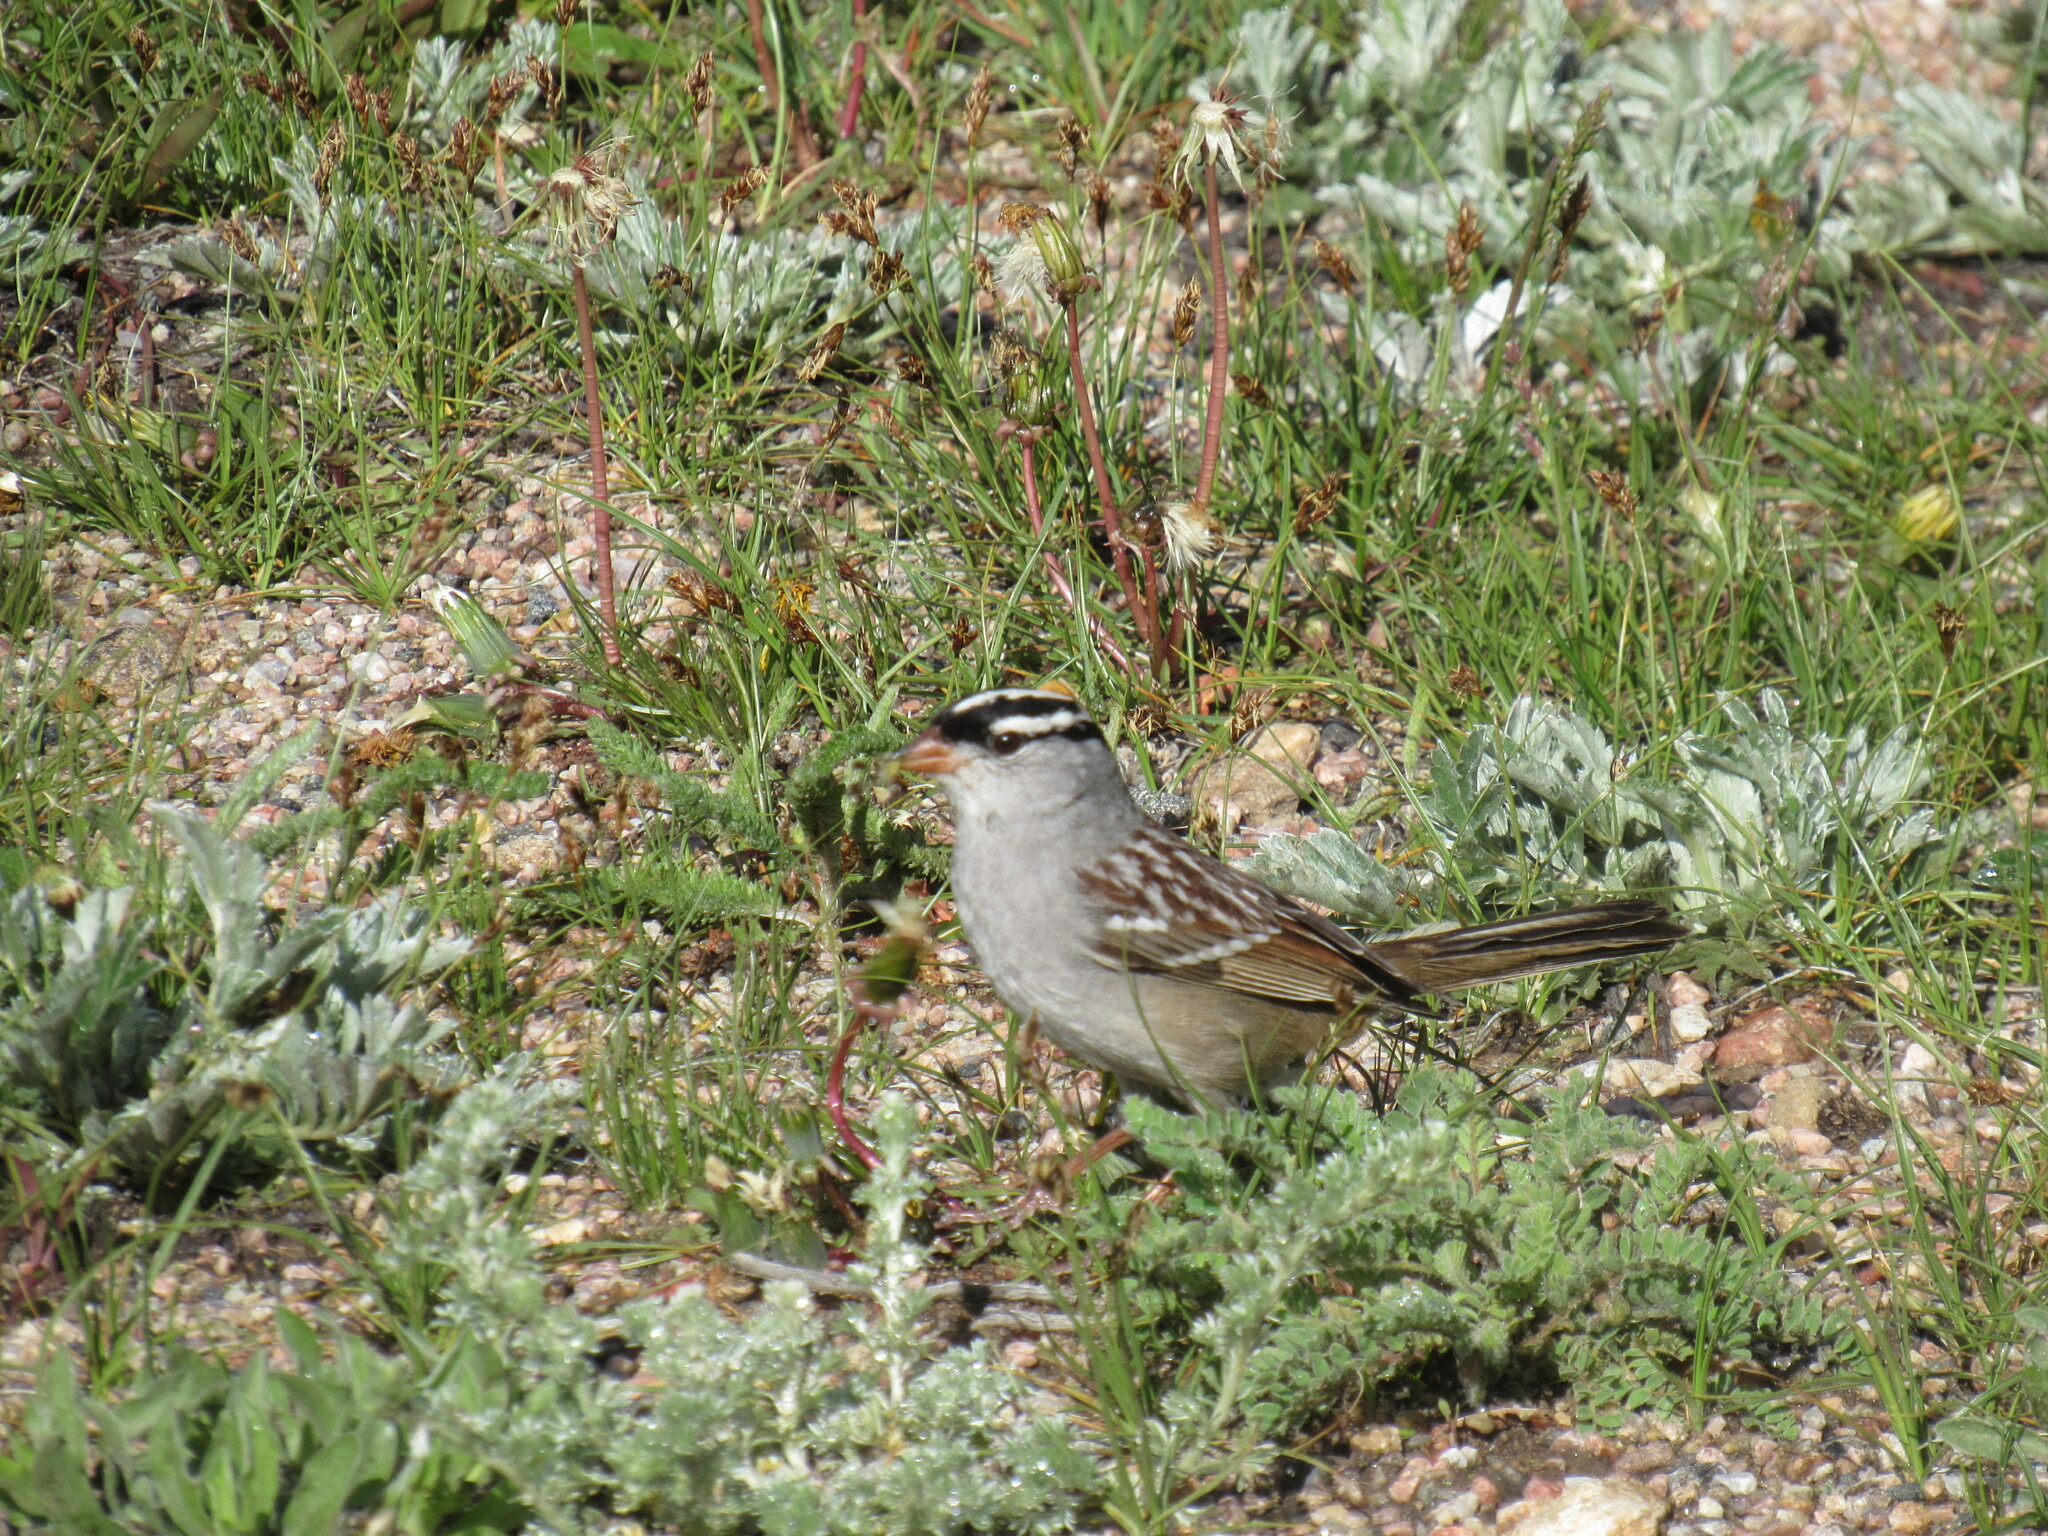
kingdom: Animalia
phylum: Chordata
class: Aves
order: Passeriformes
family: Passerellidae
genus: Zonotrichia
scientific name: Zonotrichia leucophrys
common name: White-crowned sparrow
